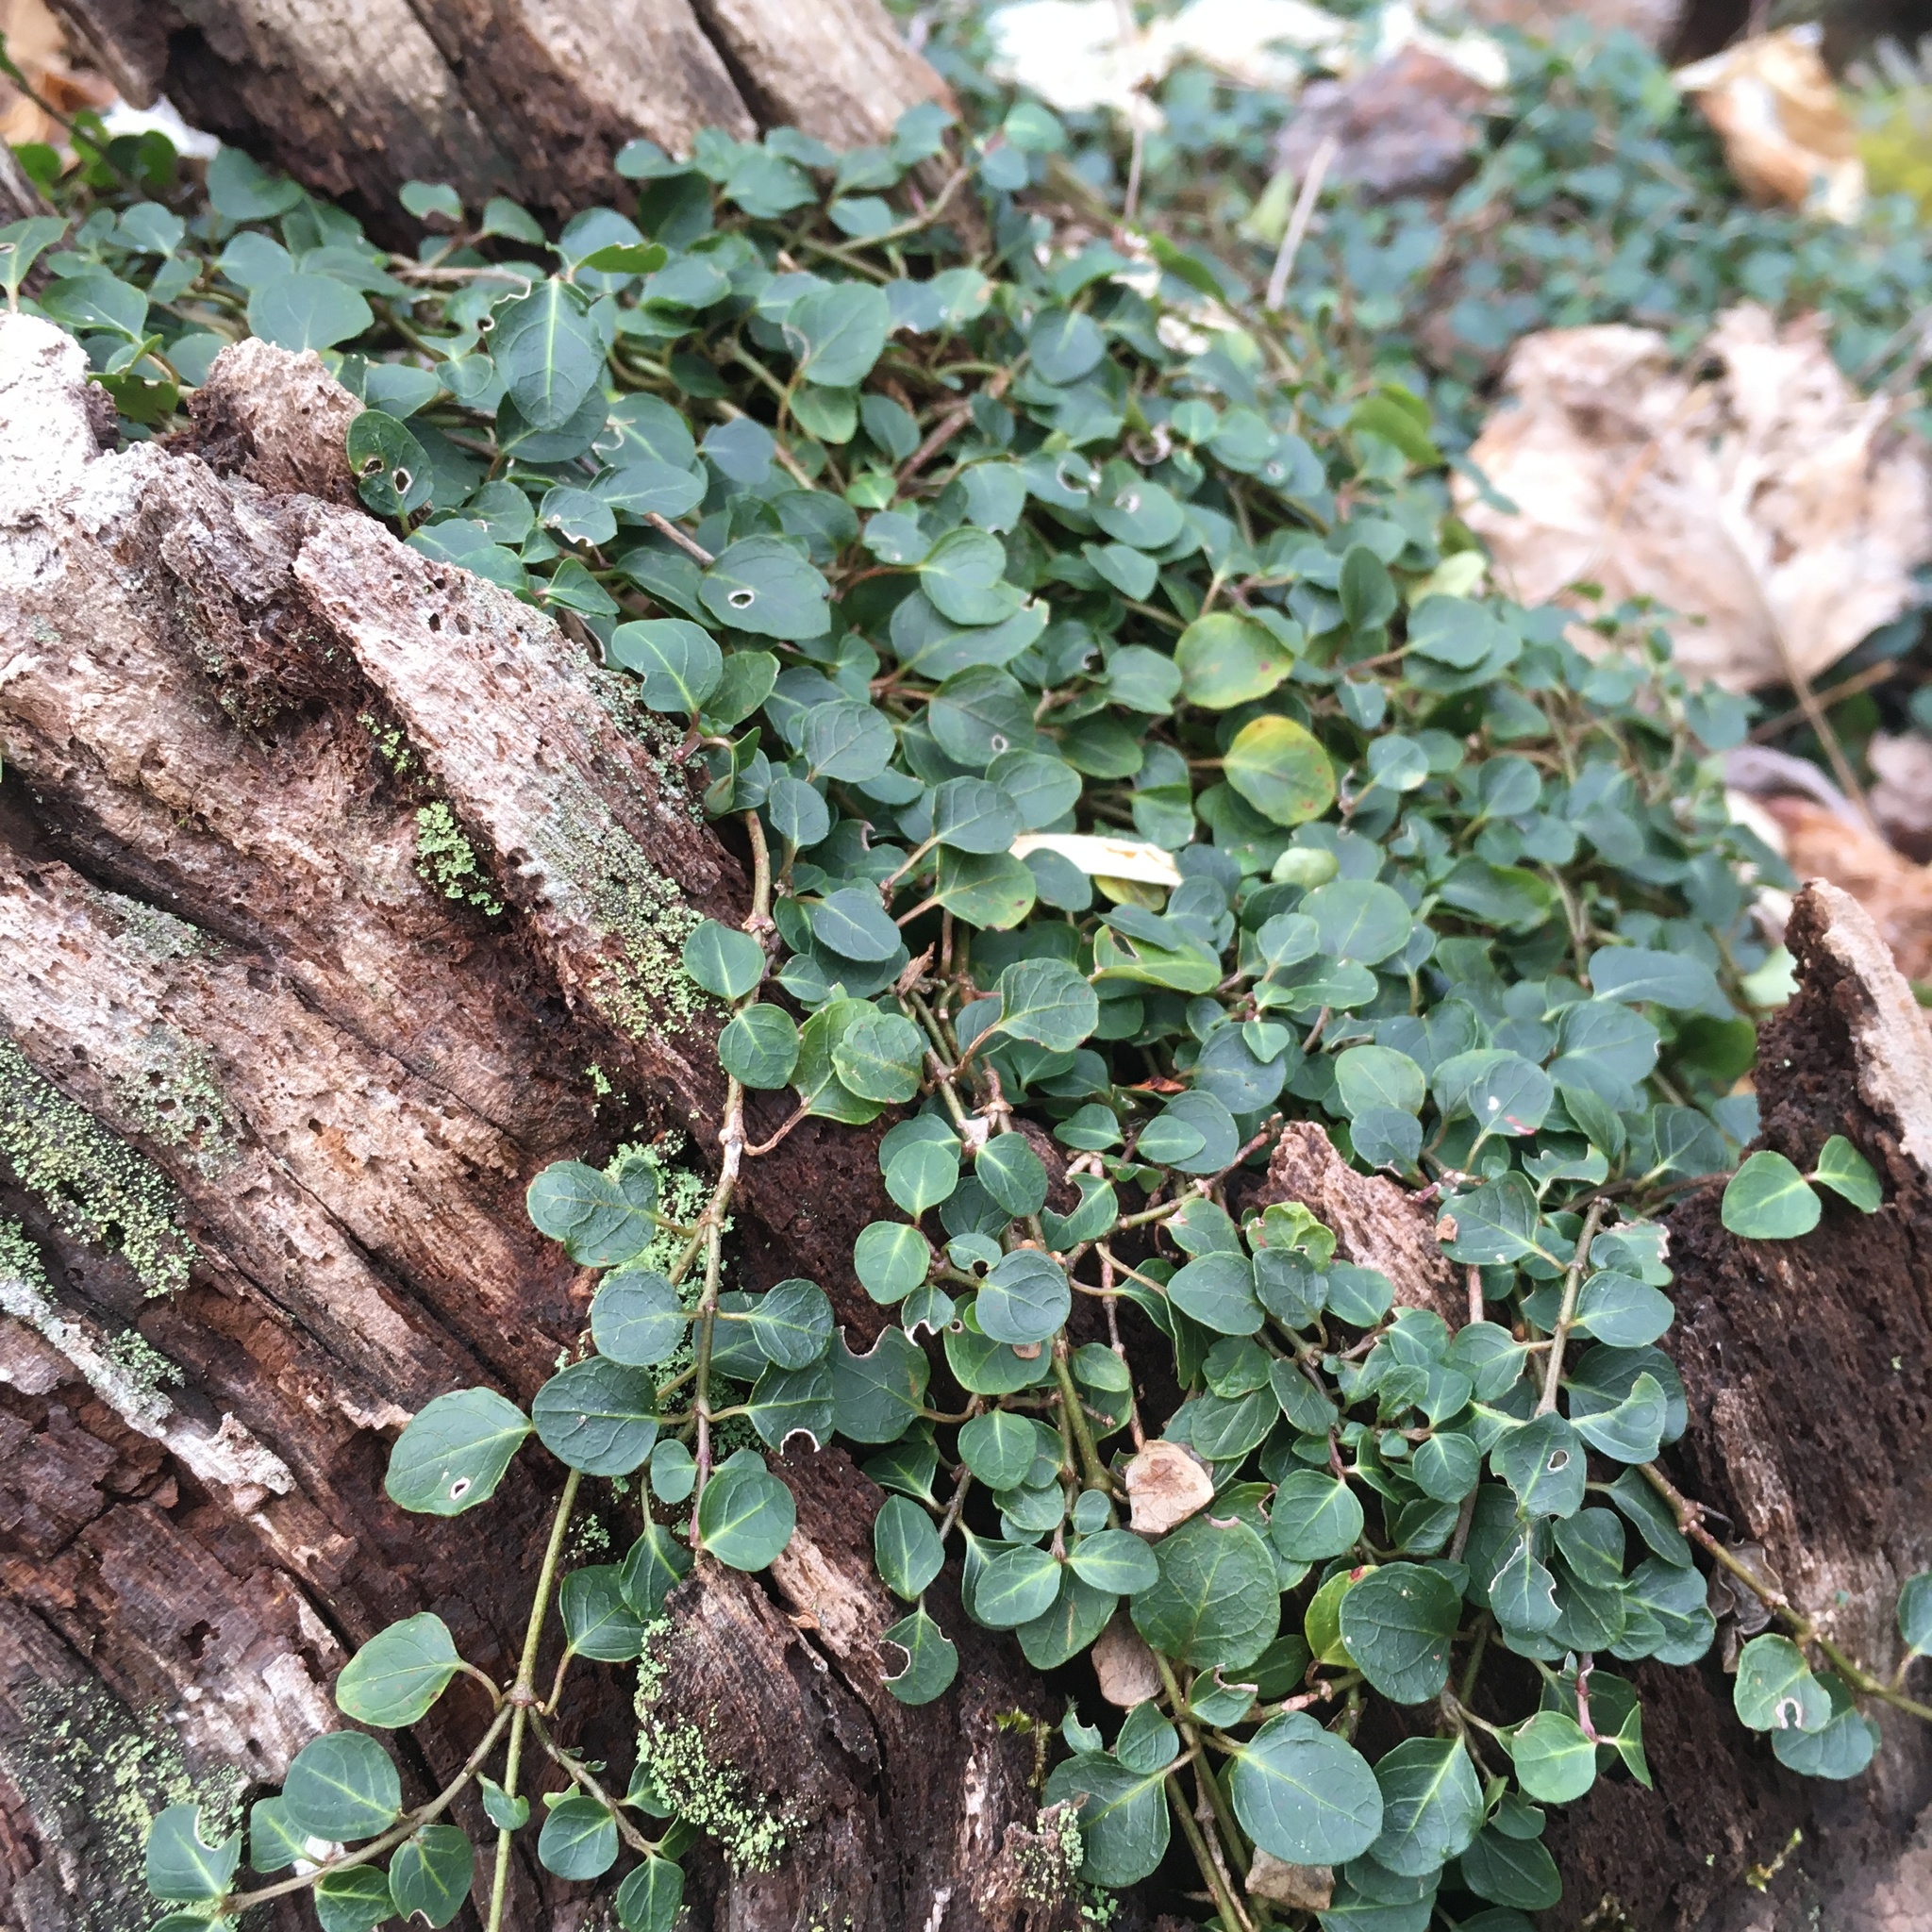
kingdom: Plantae
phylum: Tracheophyta
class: Magnoliopsida
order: Gentianales
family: Rubiaceae
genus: Mitchella
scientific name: Mitchella repens
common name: Partridge-berry
